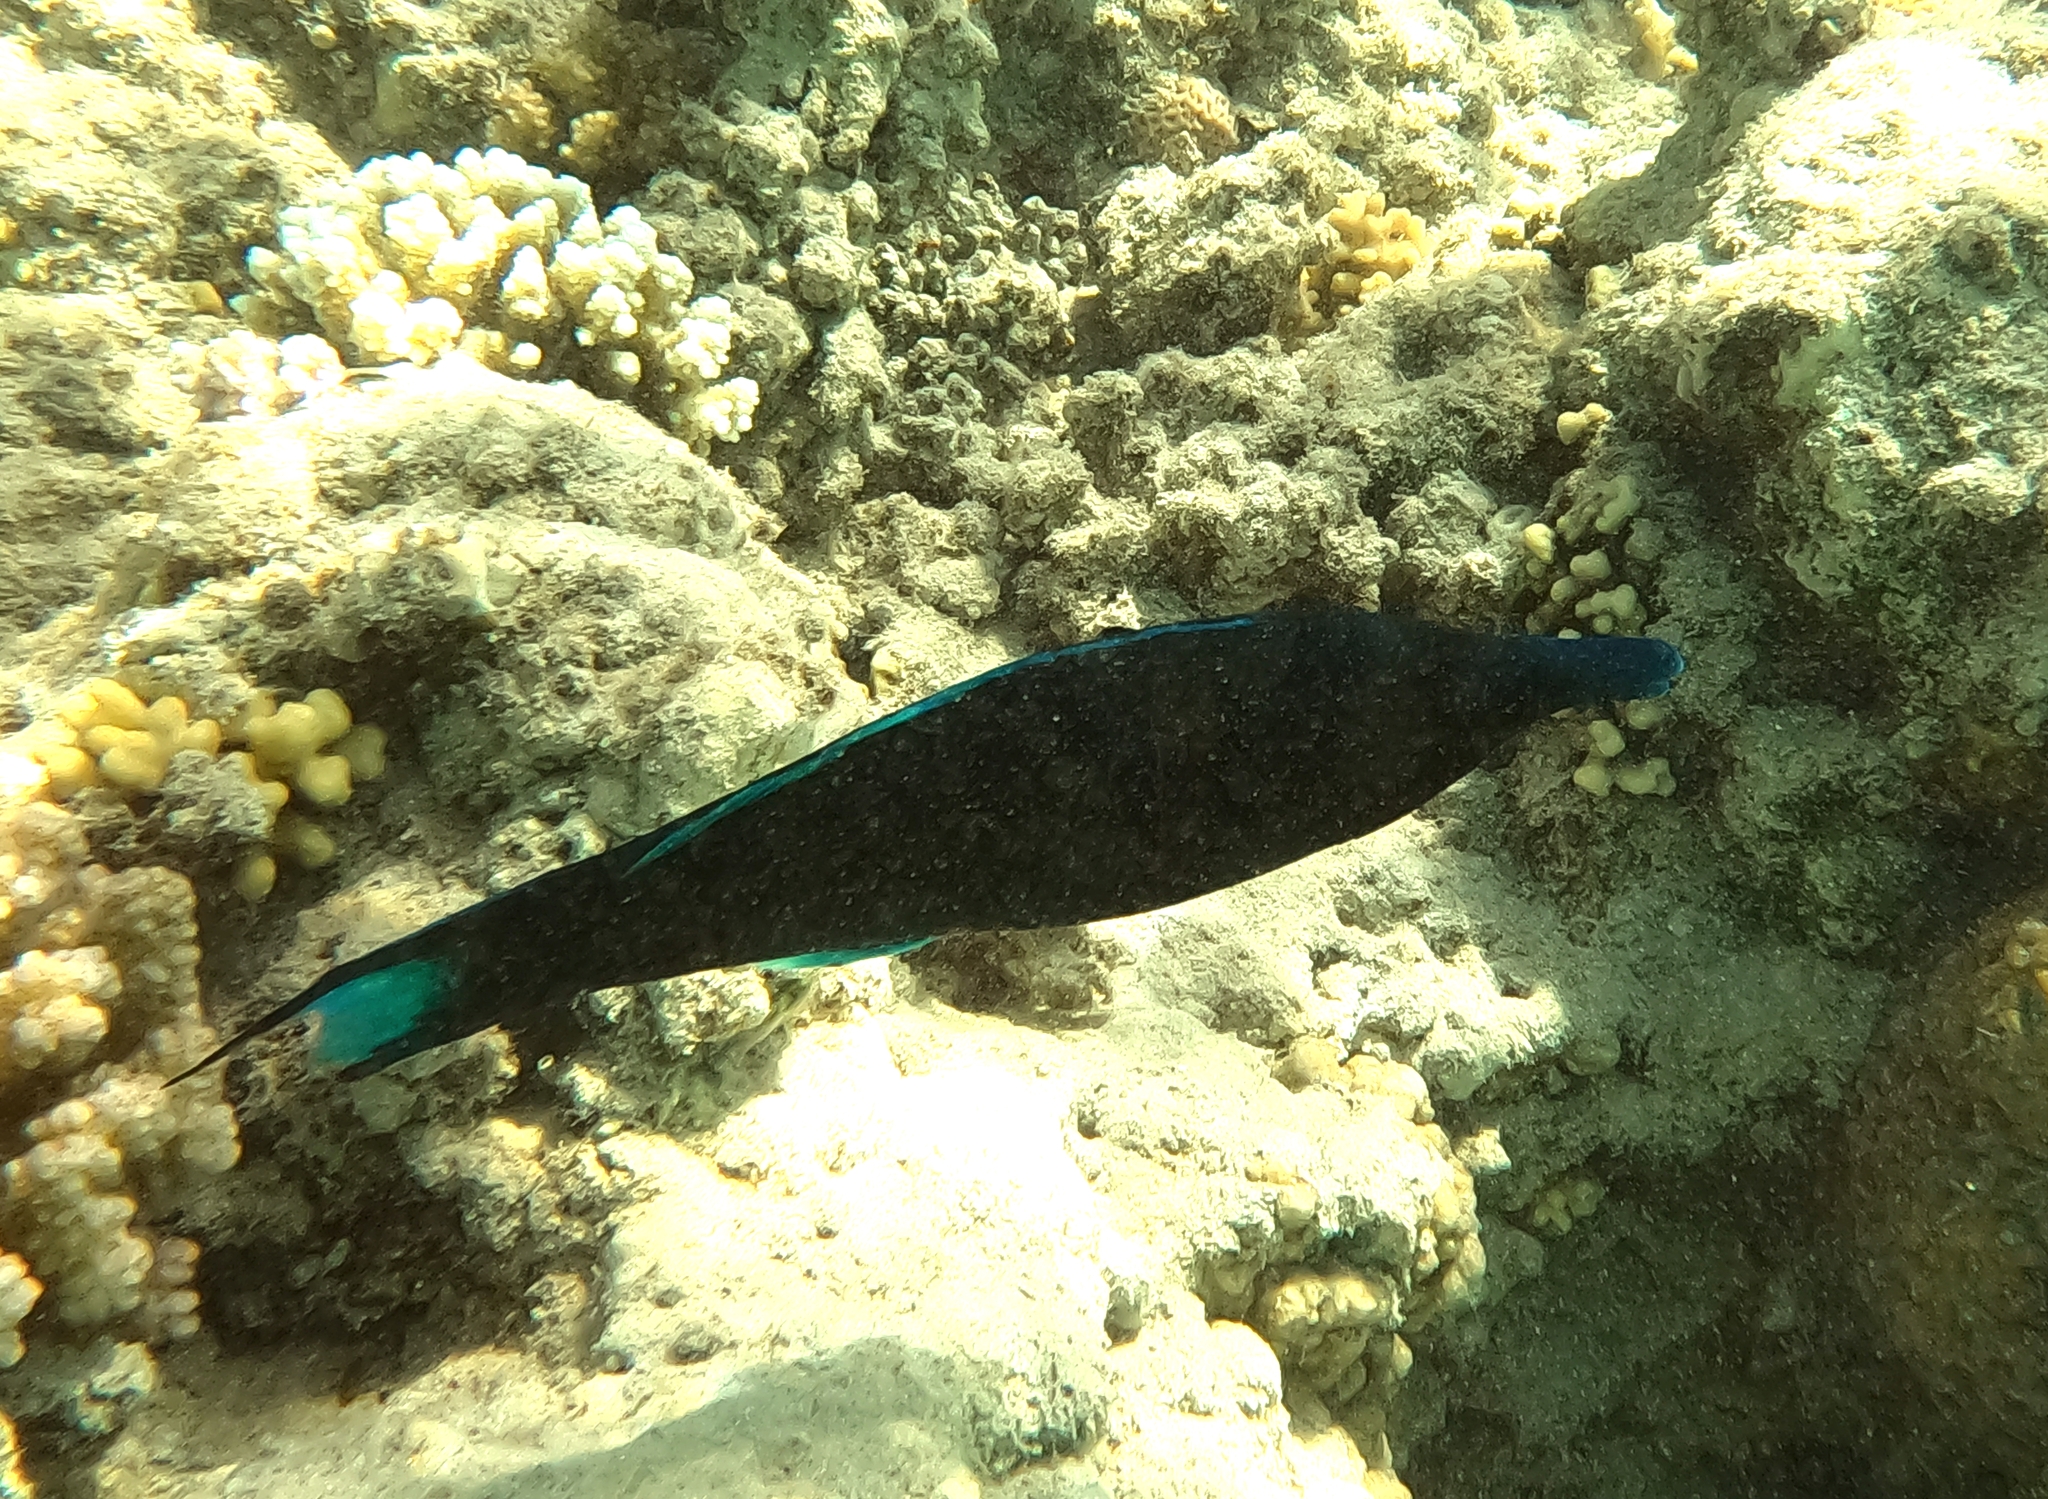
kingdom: Animalia
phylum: Chordata
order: Perciformes
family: Labridae
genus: Gomphosus
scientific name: Gomphosus klunzingeri
